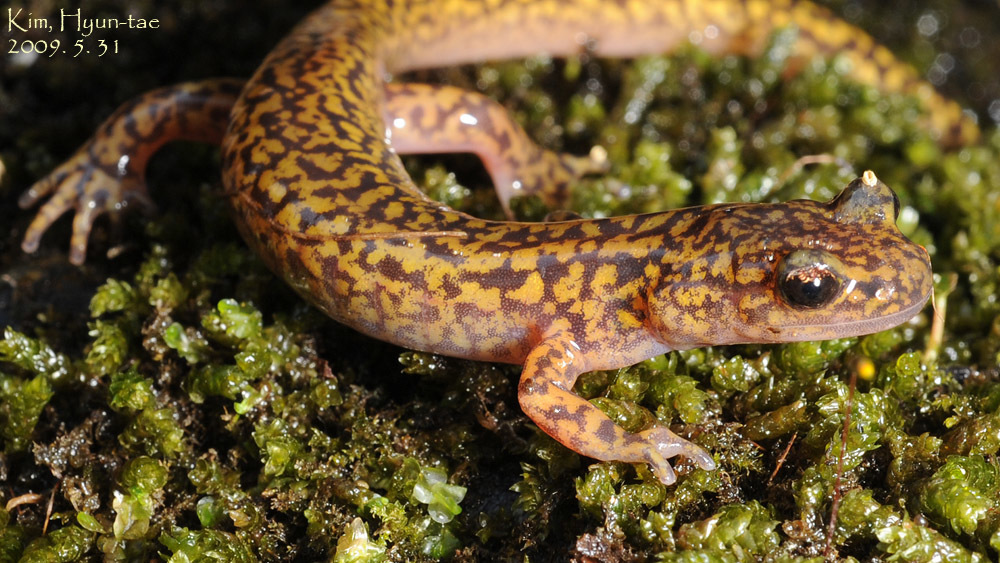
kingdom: Animalia
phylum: Chordata
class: Amphibia
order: Caudata
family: Hynobiidae
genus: Onychodactylus
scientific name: Onychodactylus koreanus
